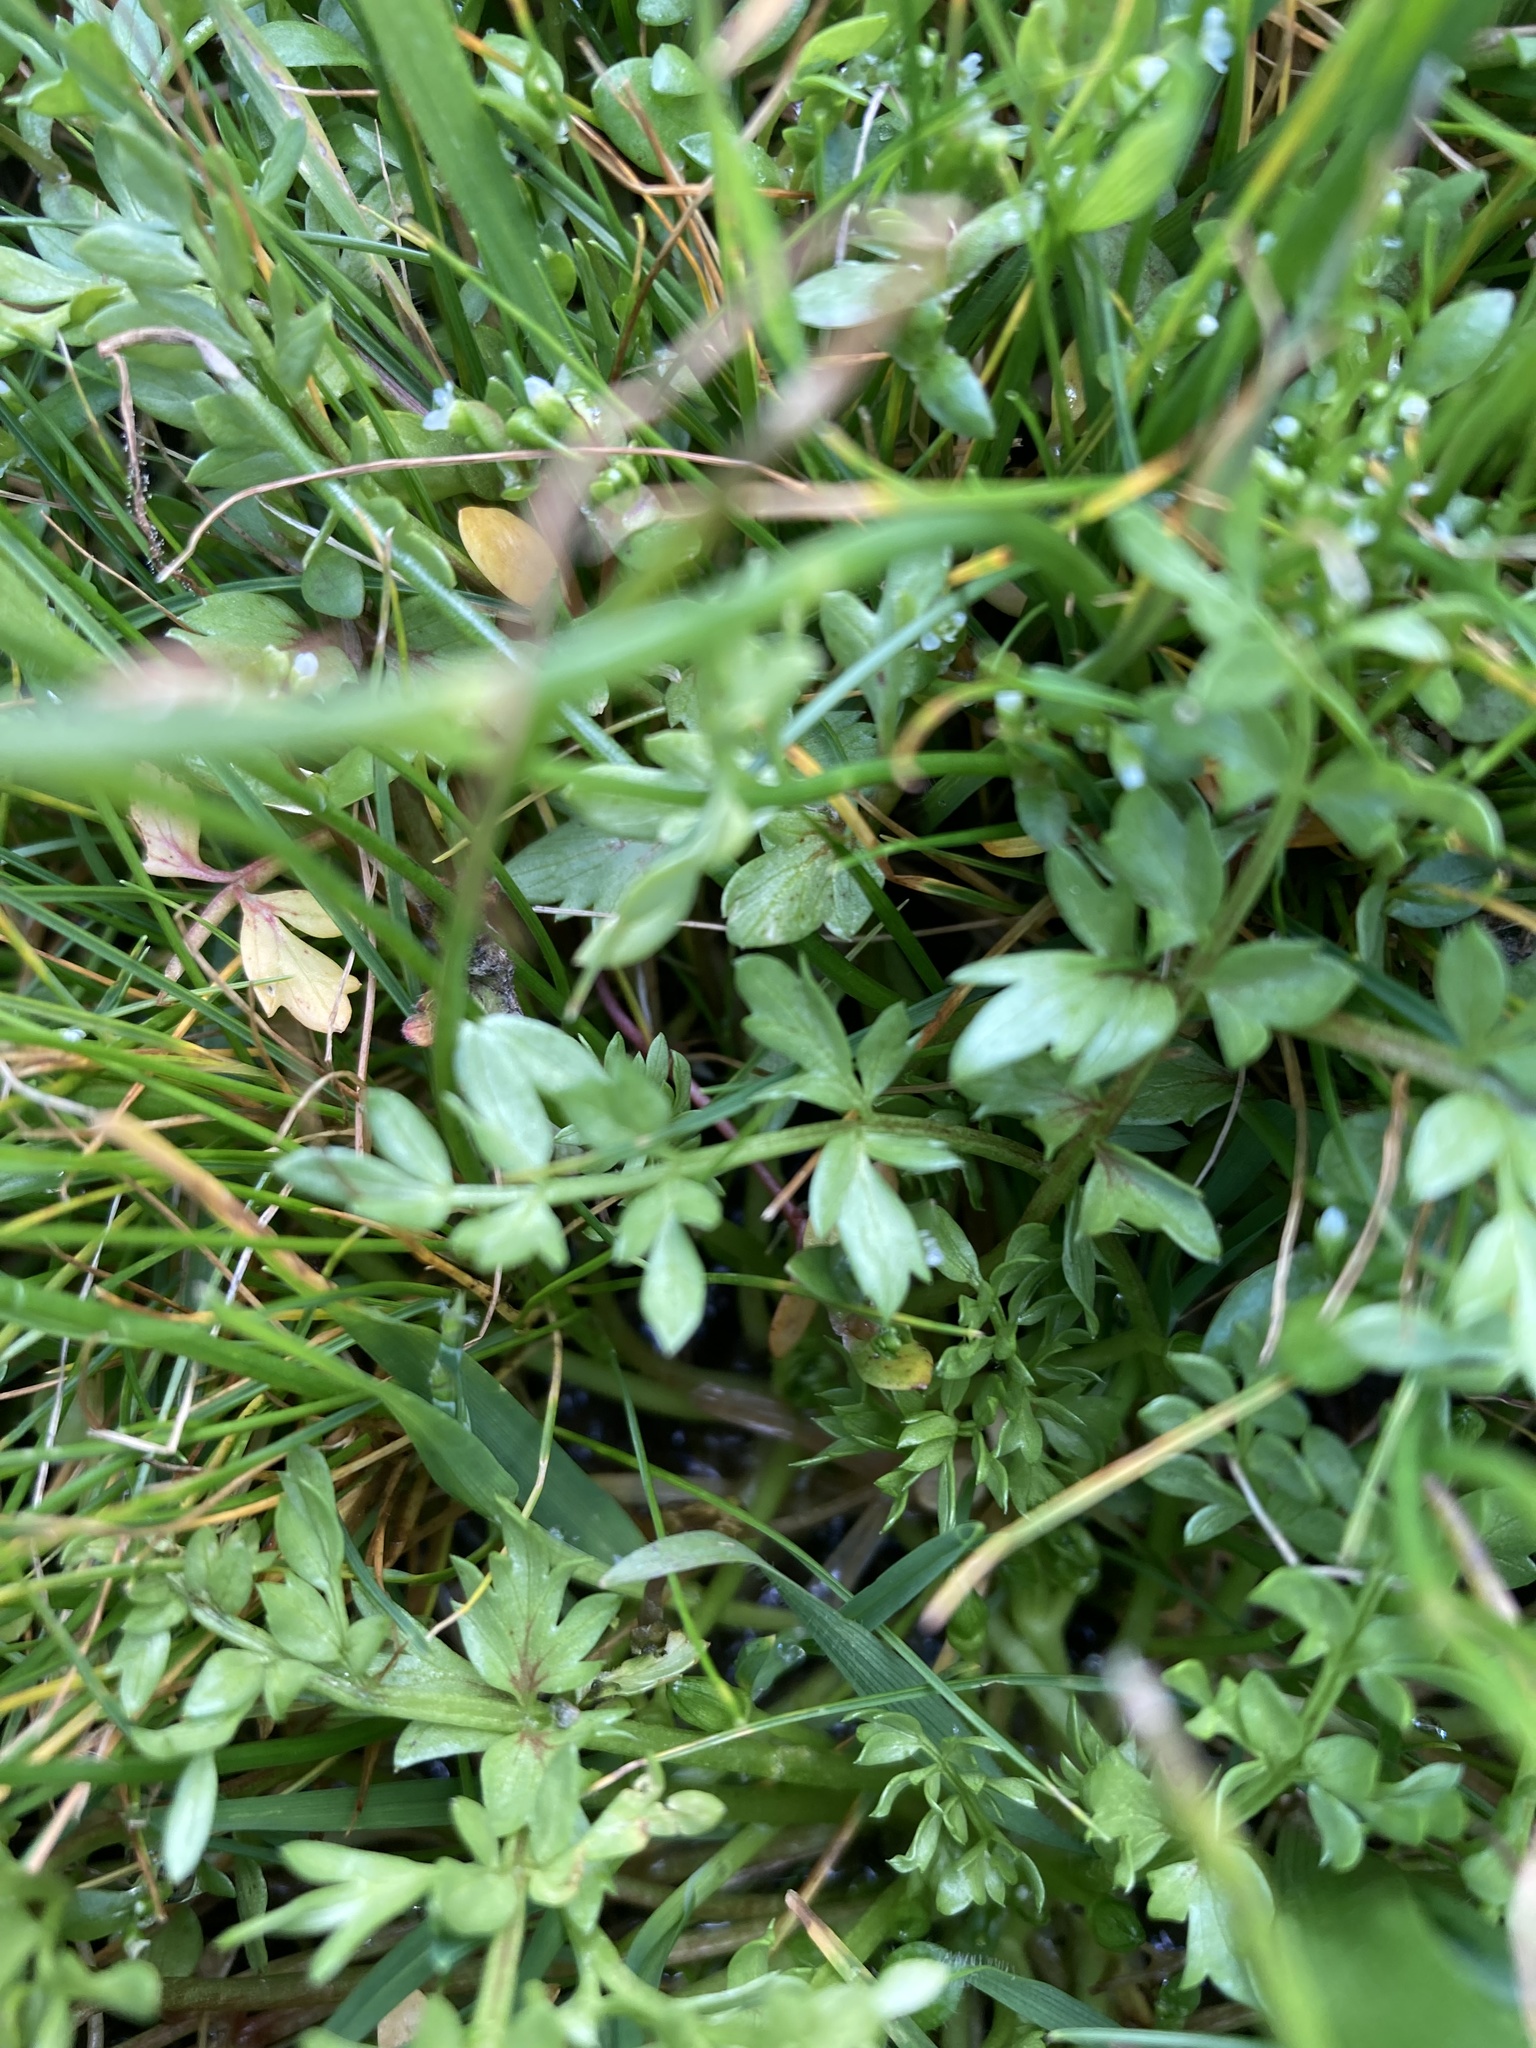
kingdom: Plantae
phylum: Tracheophyta
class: Magnoliopsida
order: Brassicales
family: Limnanthaceae
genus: Limnanthes
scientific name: Limnanthes macounii
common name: Macoun's meadowfoam
